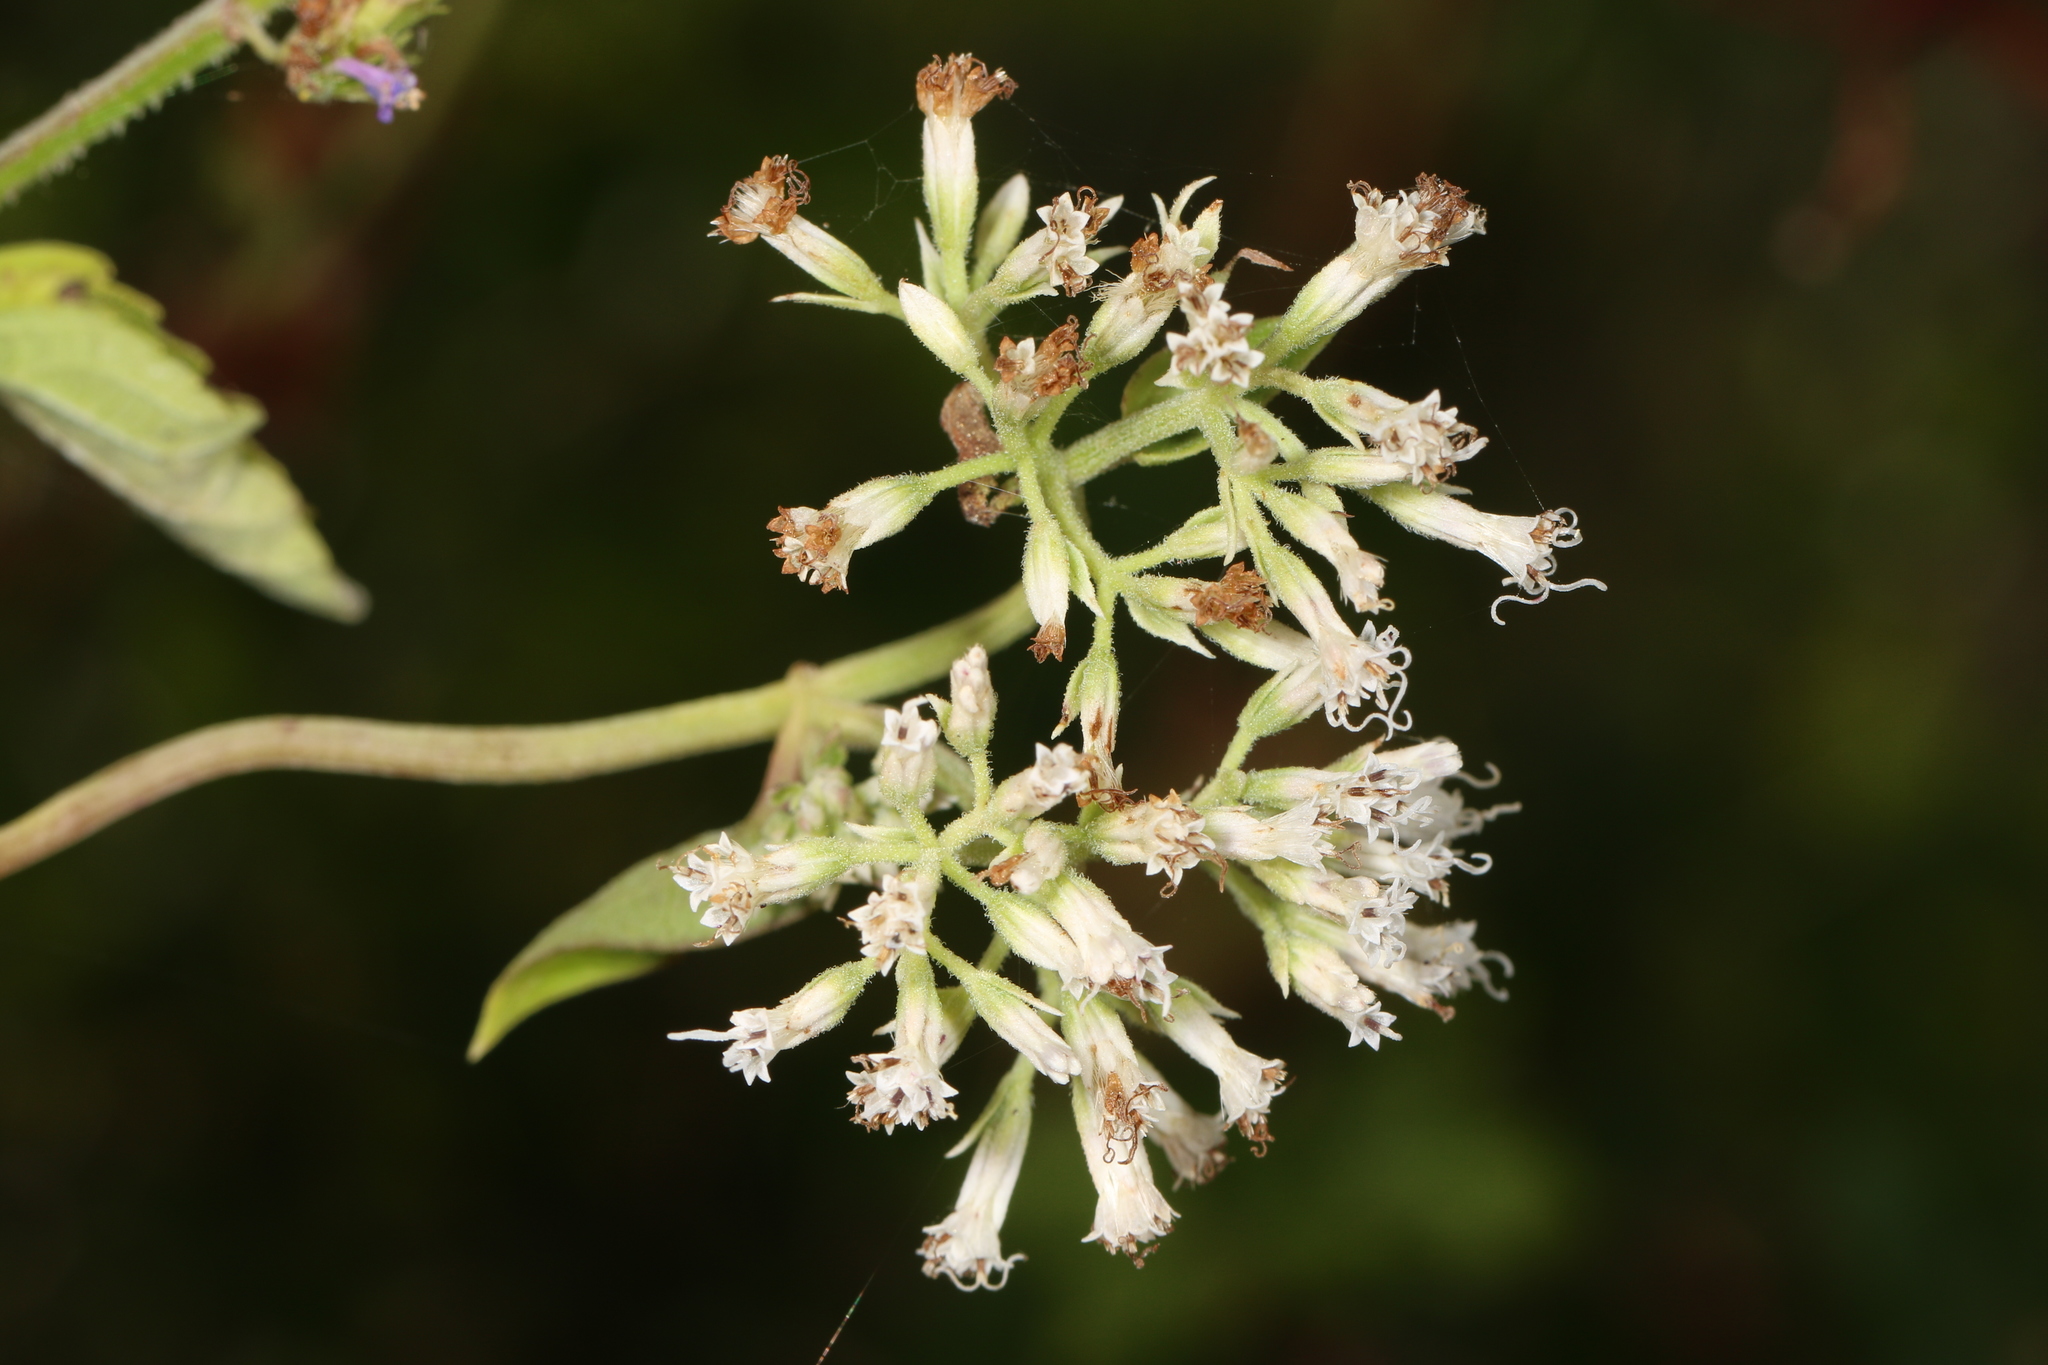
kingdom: Plantae
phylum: Tracheophyta
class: Magnoliopsida
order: Asterales
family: Asteraceae
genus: Mikania
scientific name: Mikania scandens
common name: Climbing hempvine
